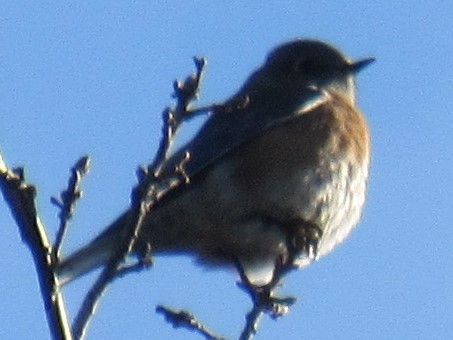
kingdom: Animalia
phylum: Chordata
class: Aves
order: Passeriformes
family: Turdidae
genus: Sialia
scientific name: Sialia mexicana
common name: Western bluebird
